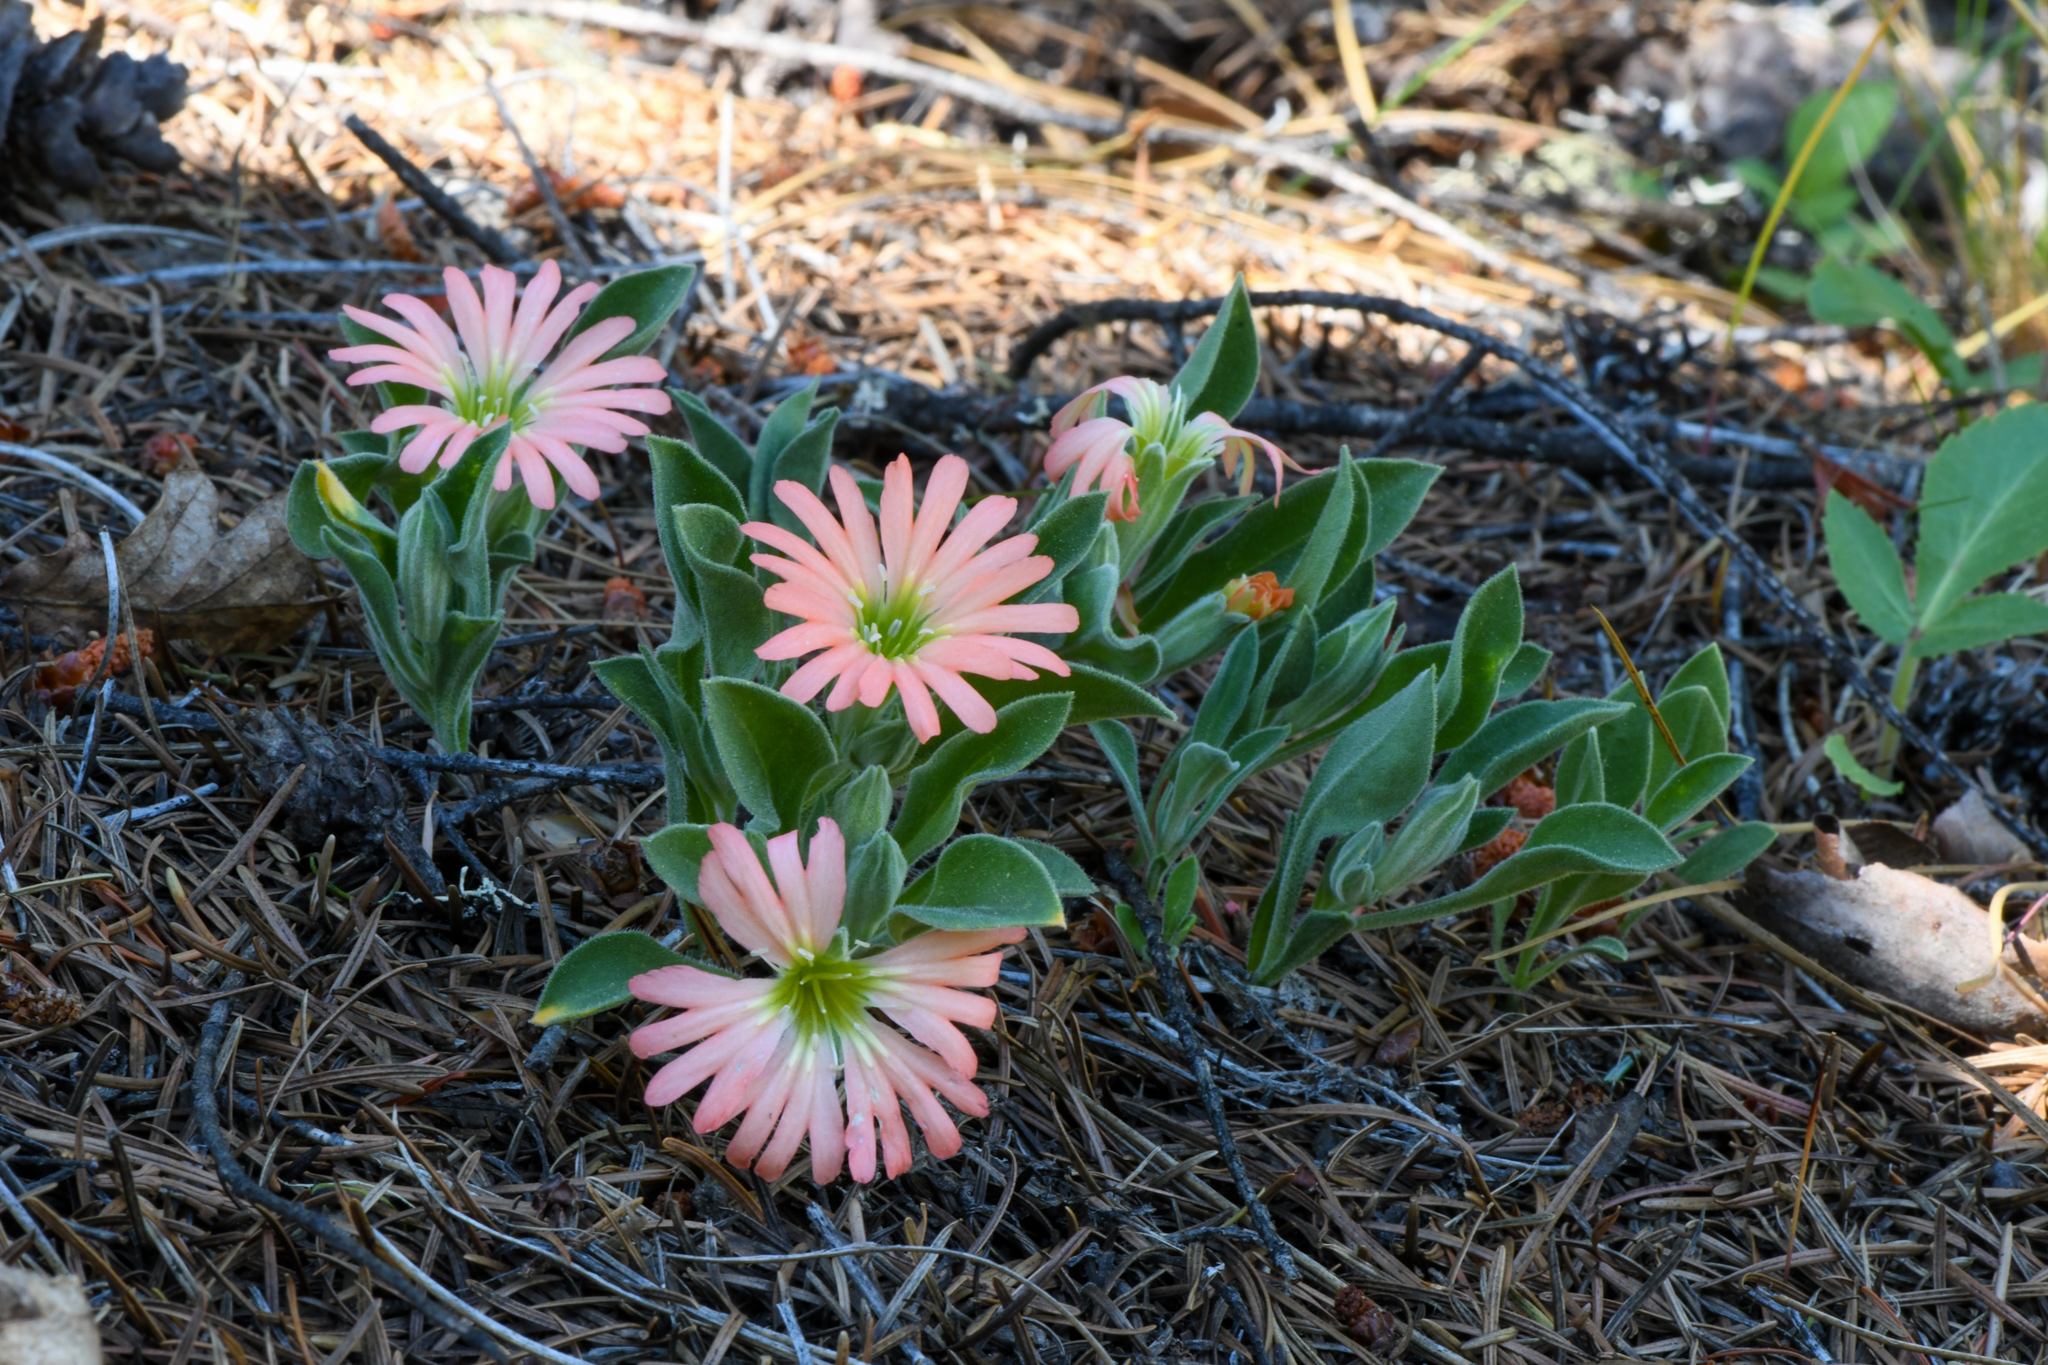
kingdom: Plantae
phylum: Tracheophyta
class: Magnoliopsida
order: Caryophyllales
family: Caryophyllaceae
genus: Silene
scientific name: Silene salmonacea
